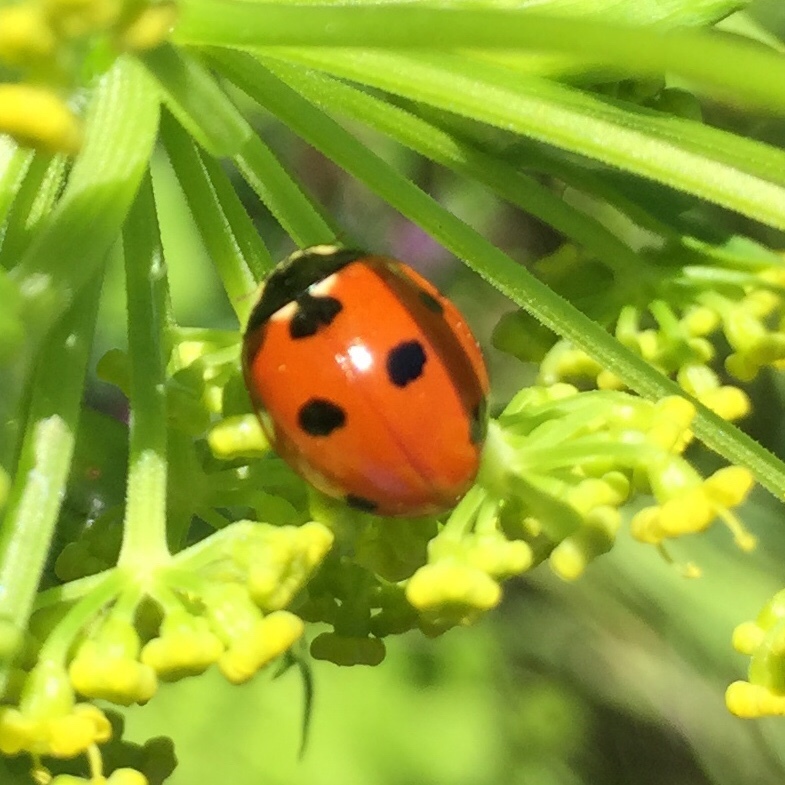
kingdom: Animalia
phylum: Arthropoda
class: Insecta
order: Coleoptera
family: Coccinellidae
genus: Coccinella
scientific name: Coccinella septempunctata
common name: Sevenspotted lady beetle
